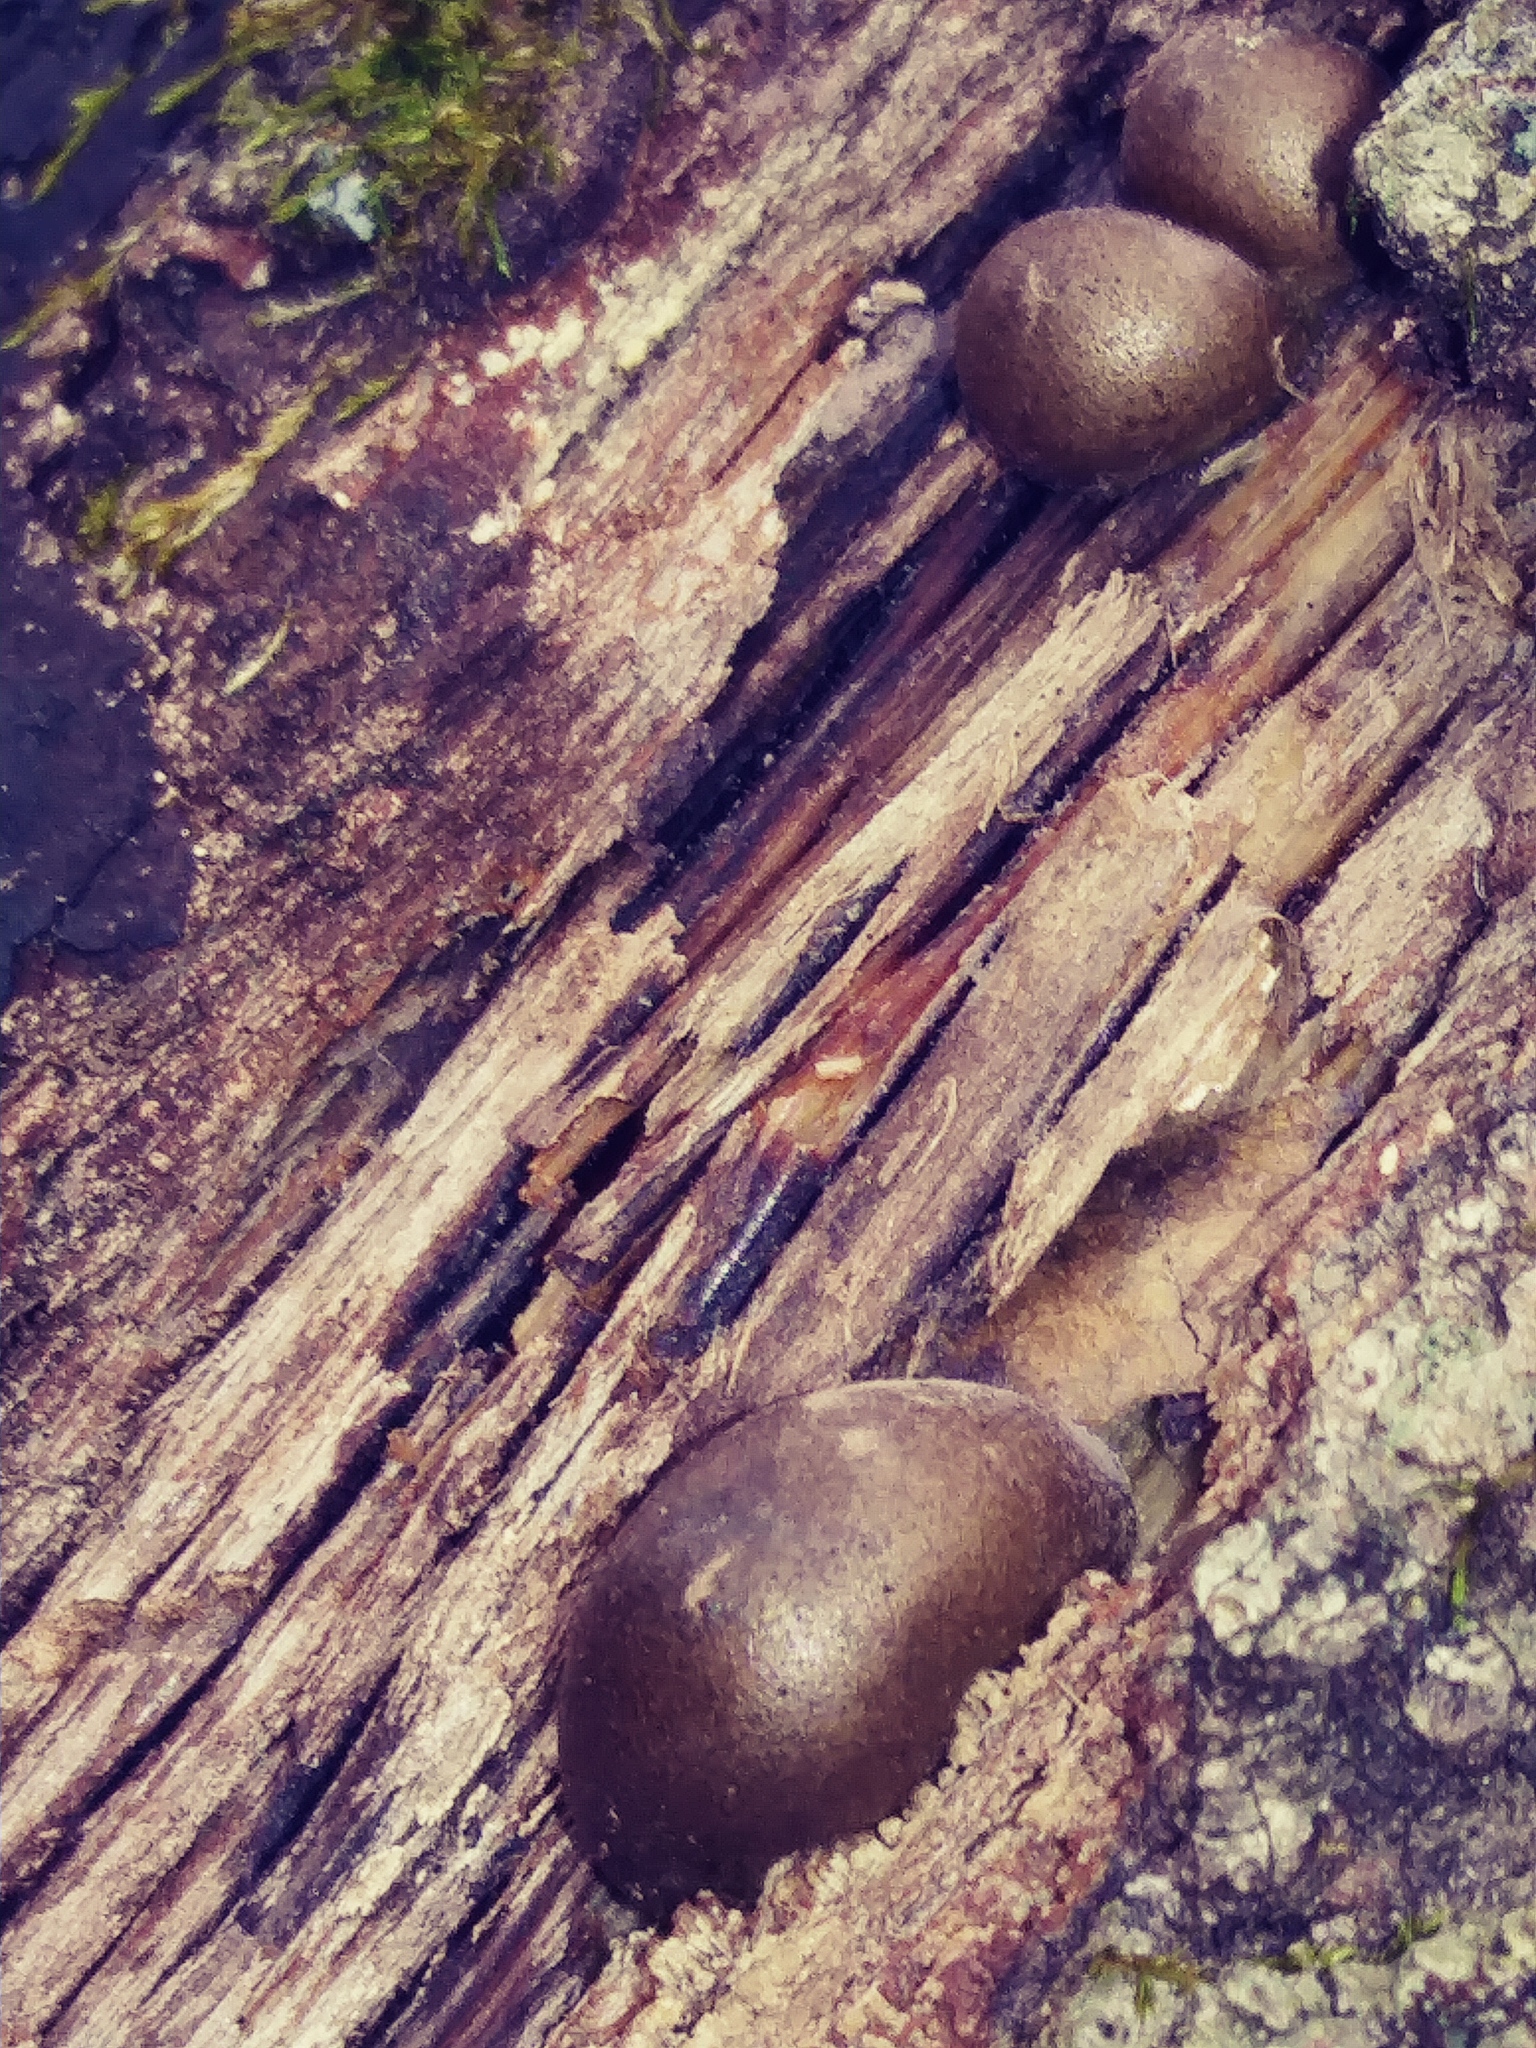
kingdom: Protozoa
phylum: Mycetozoa
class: Myxomycetes
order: Cribrariales
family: Tubiferaceae
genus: Lycogala
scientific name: Lycogala epidendrum
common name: Wolf's milk
